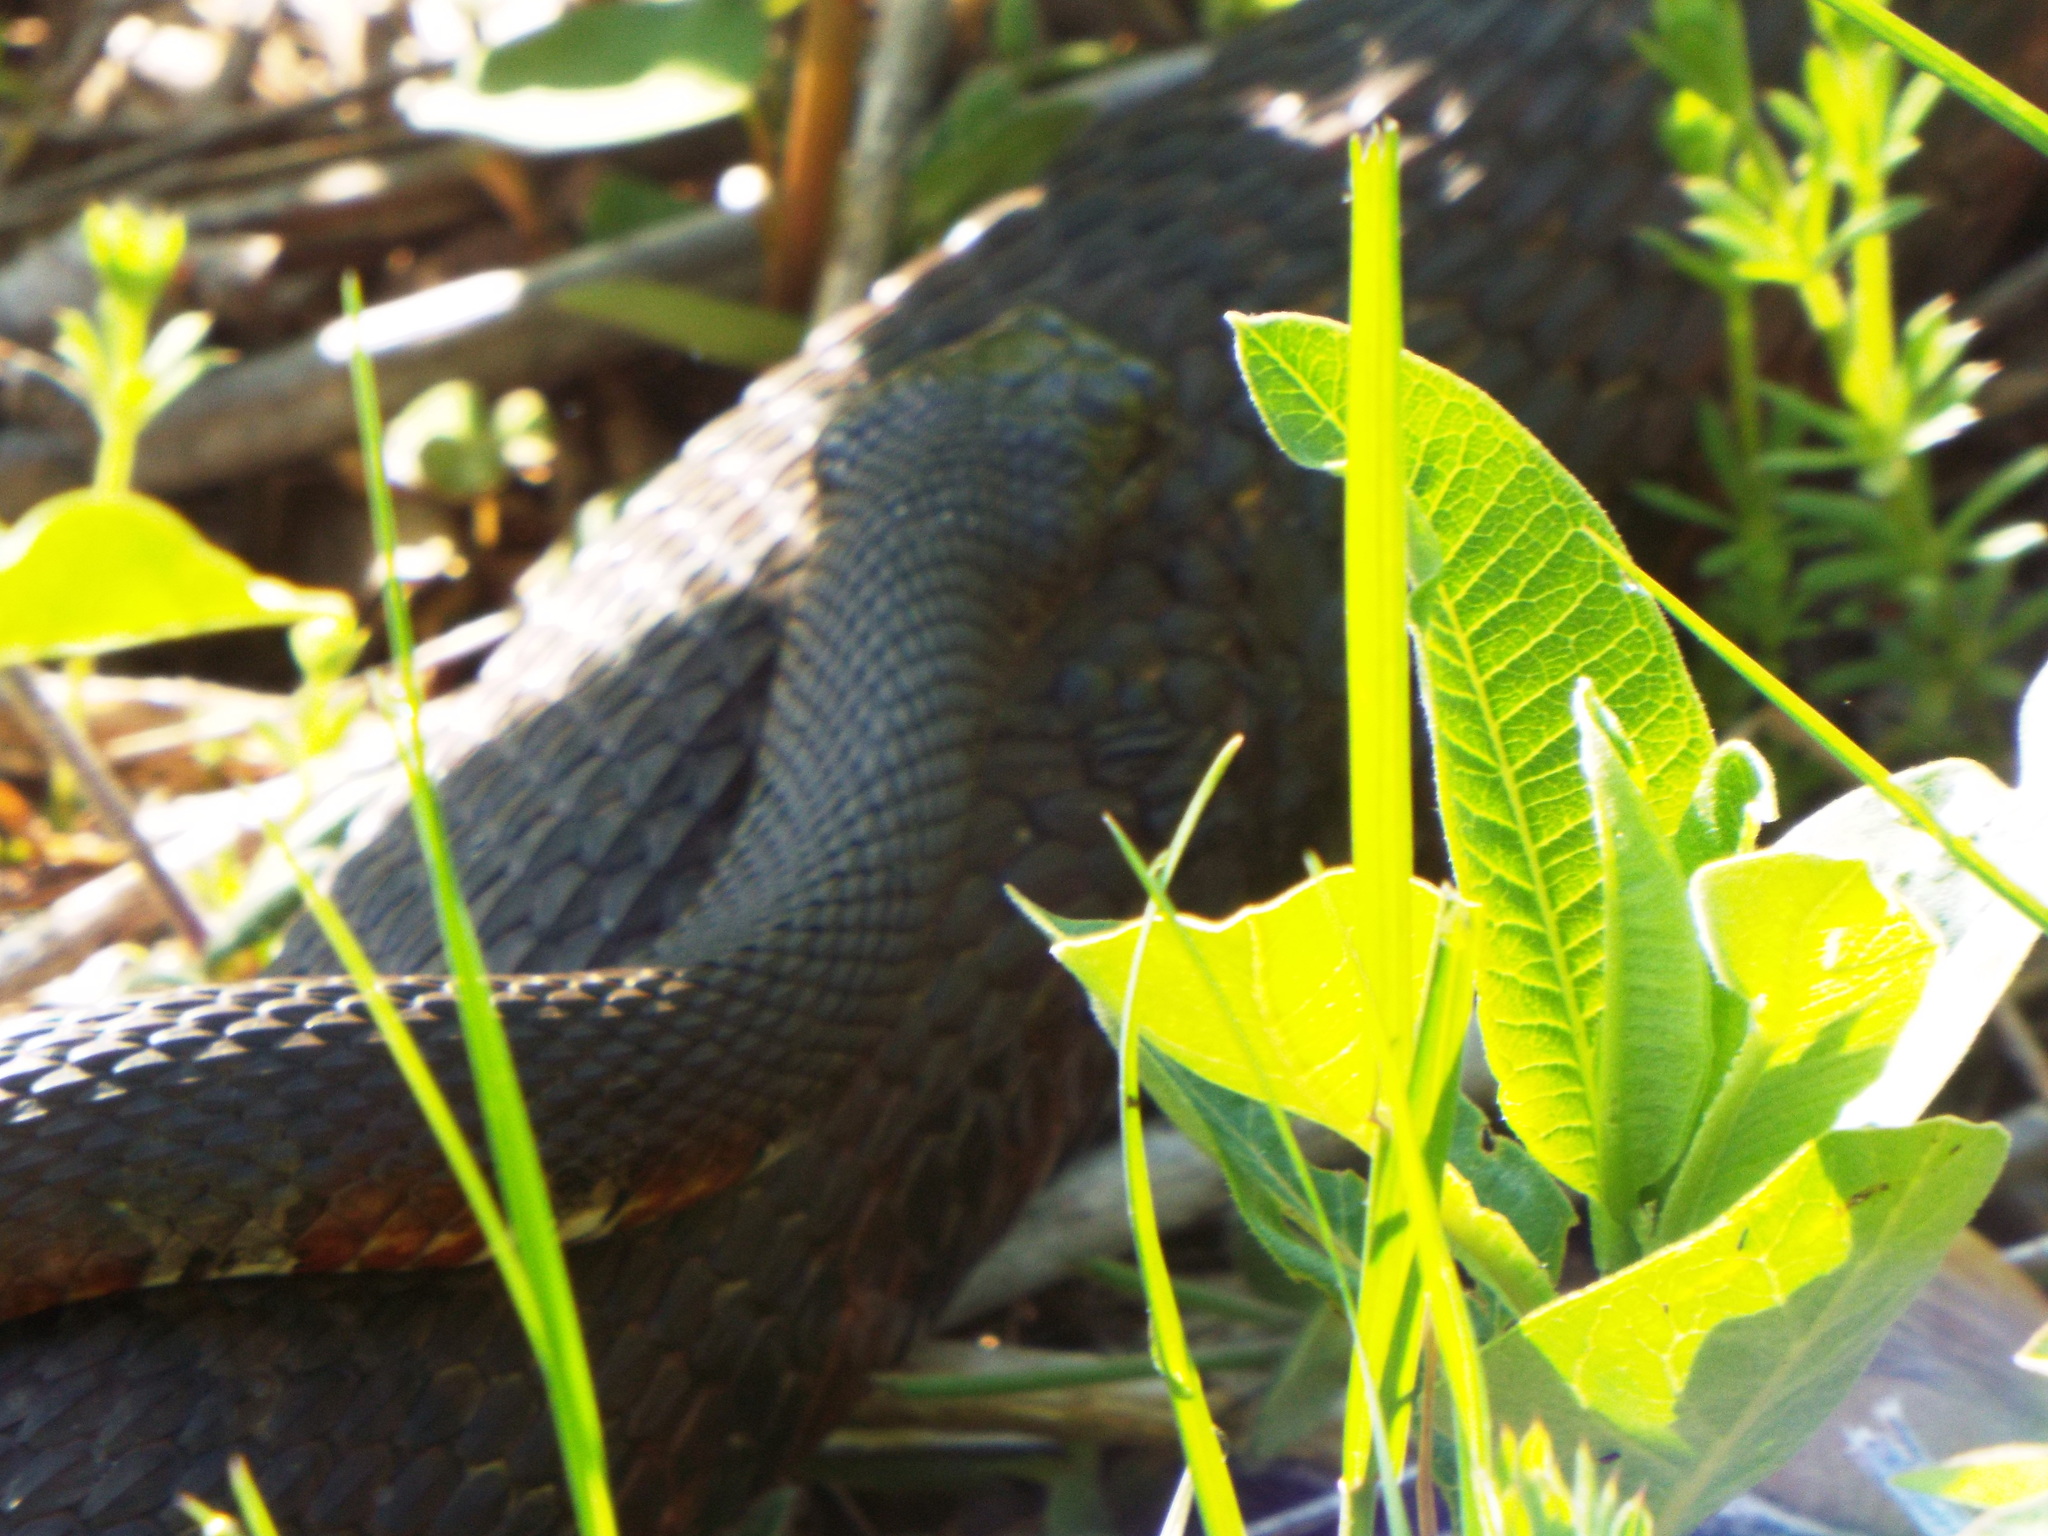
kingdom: Animalia
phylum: Chordata
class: Squamata
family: Colubridae
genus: Nerodia
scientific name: Nerodia sipedon
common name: Northern water snake
